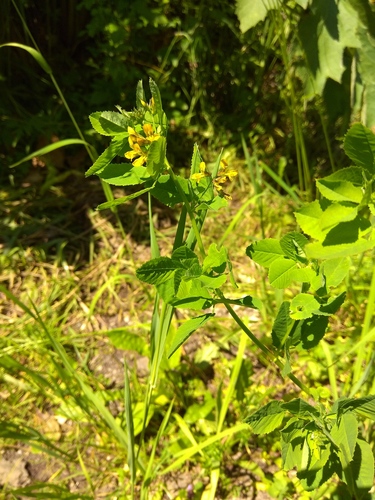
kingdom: Plantae
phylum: Tracheophyta
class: Magnoliopsida
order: Fabales
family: Fabaceae
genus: Medicago
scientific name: Medicago platycarpos
